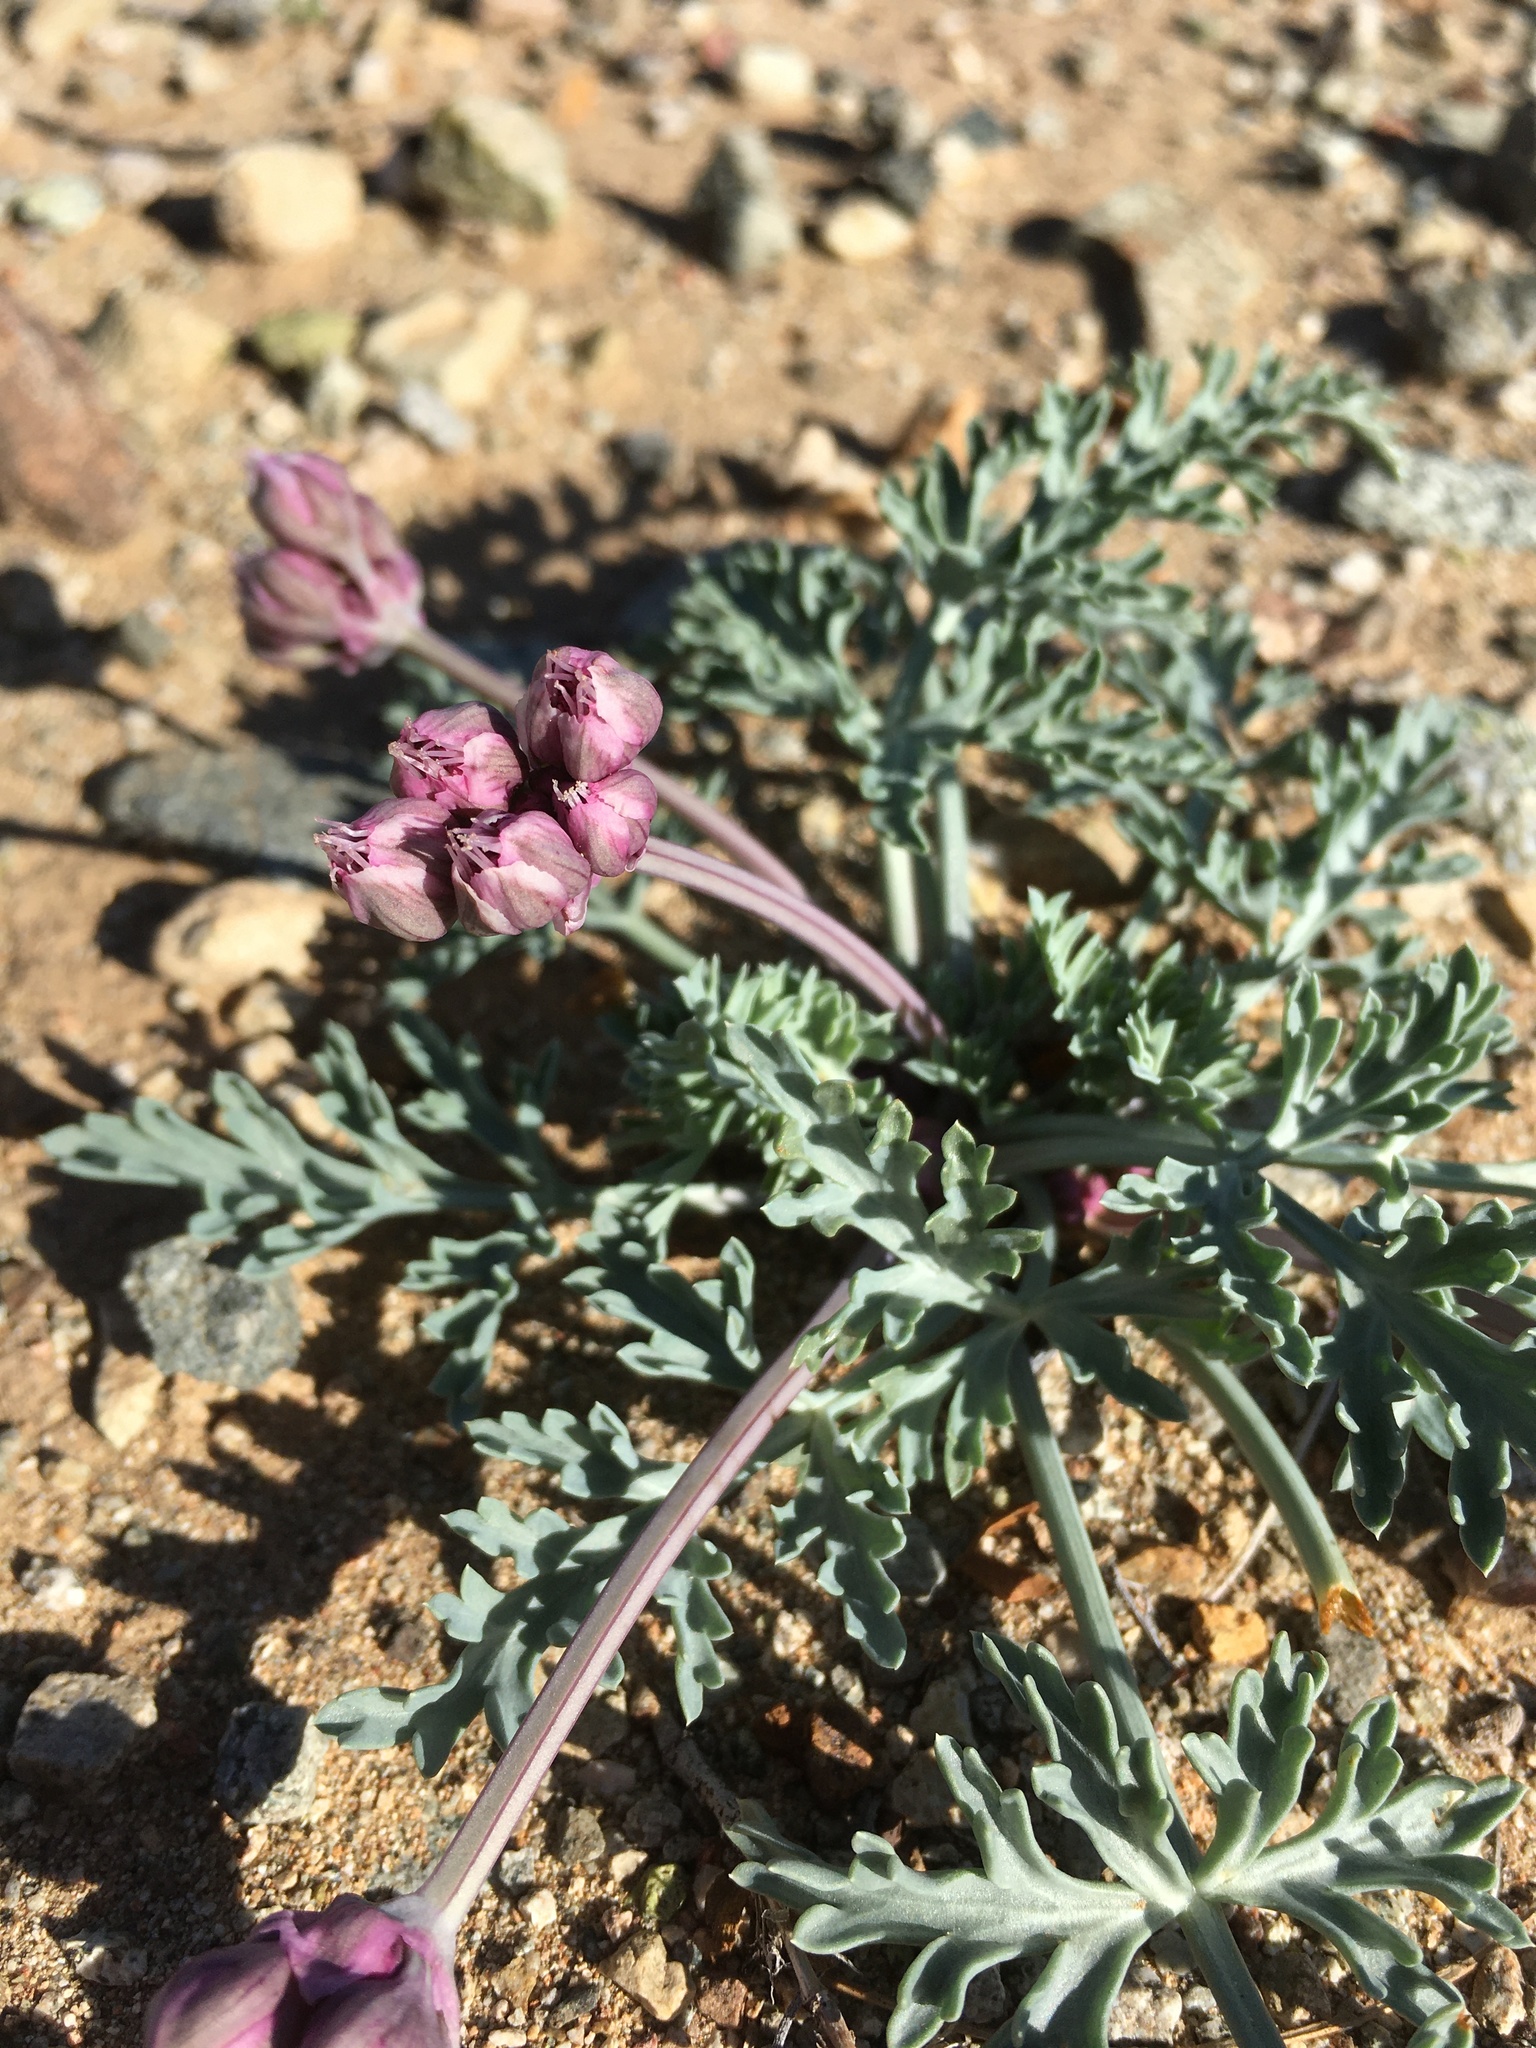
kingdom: Plantae
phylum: Tracheophyta
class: Magnoliopsida
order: Apiales
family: Apiaceae
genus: Vesper
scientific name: Vesper multinervatus
